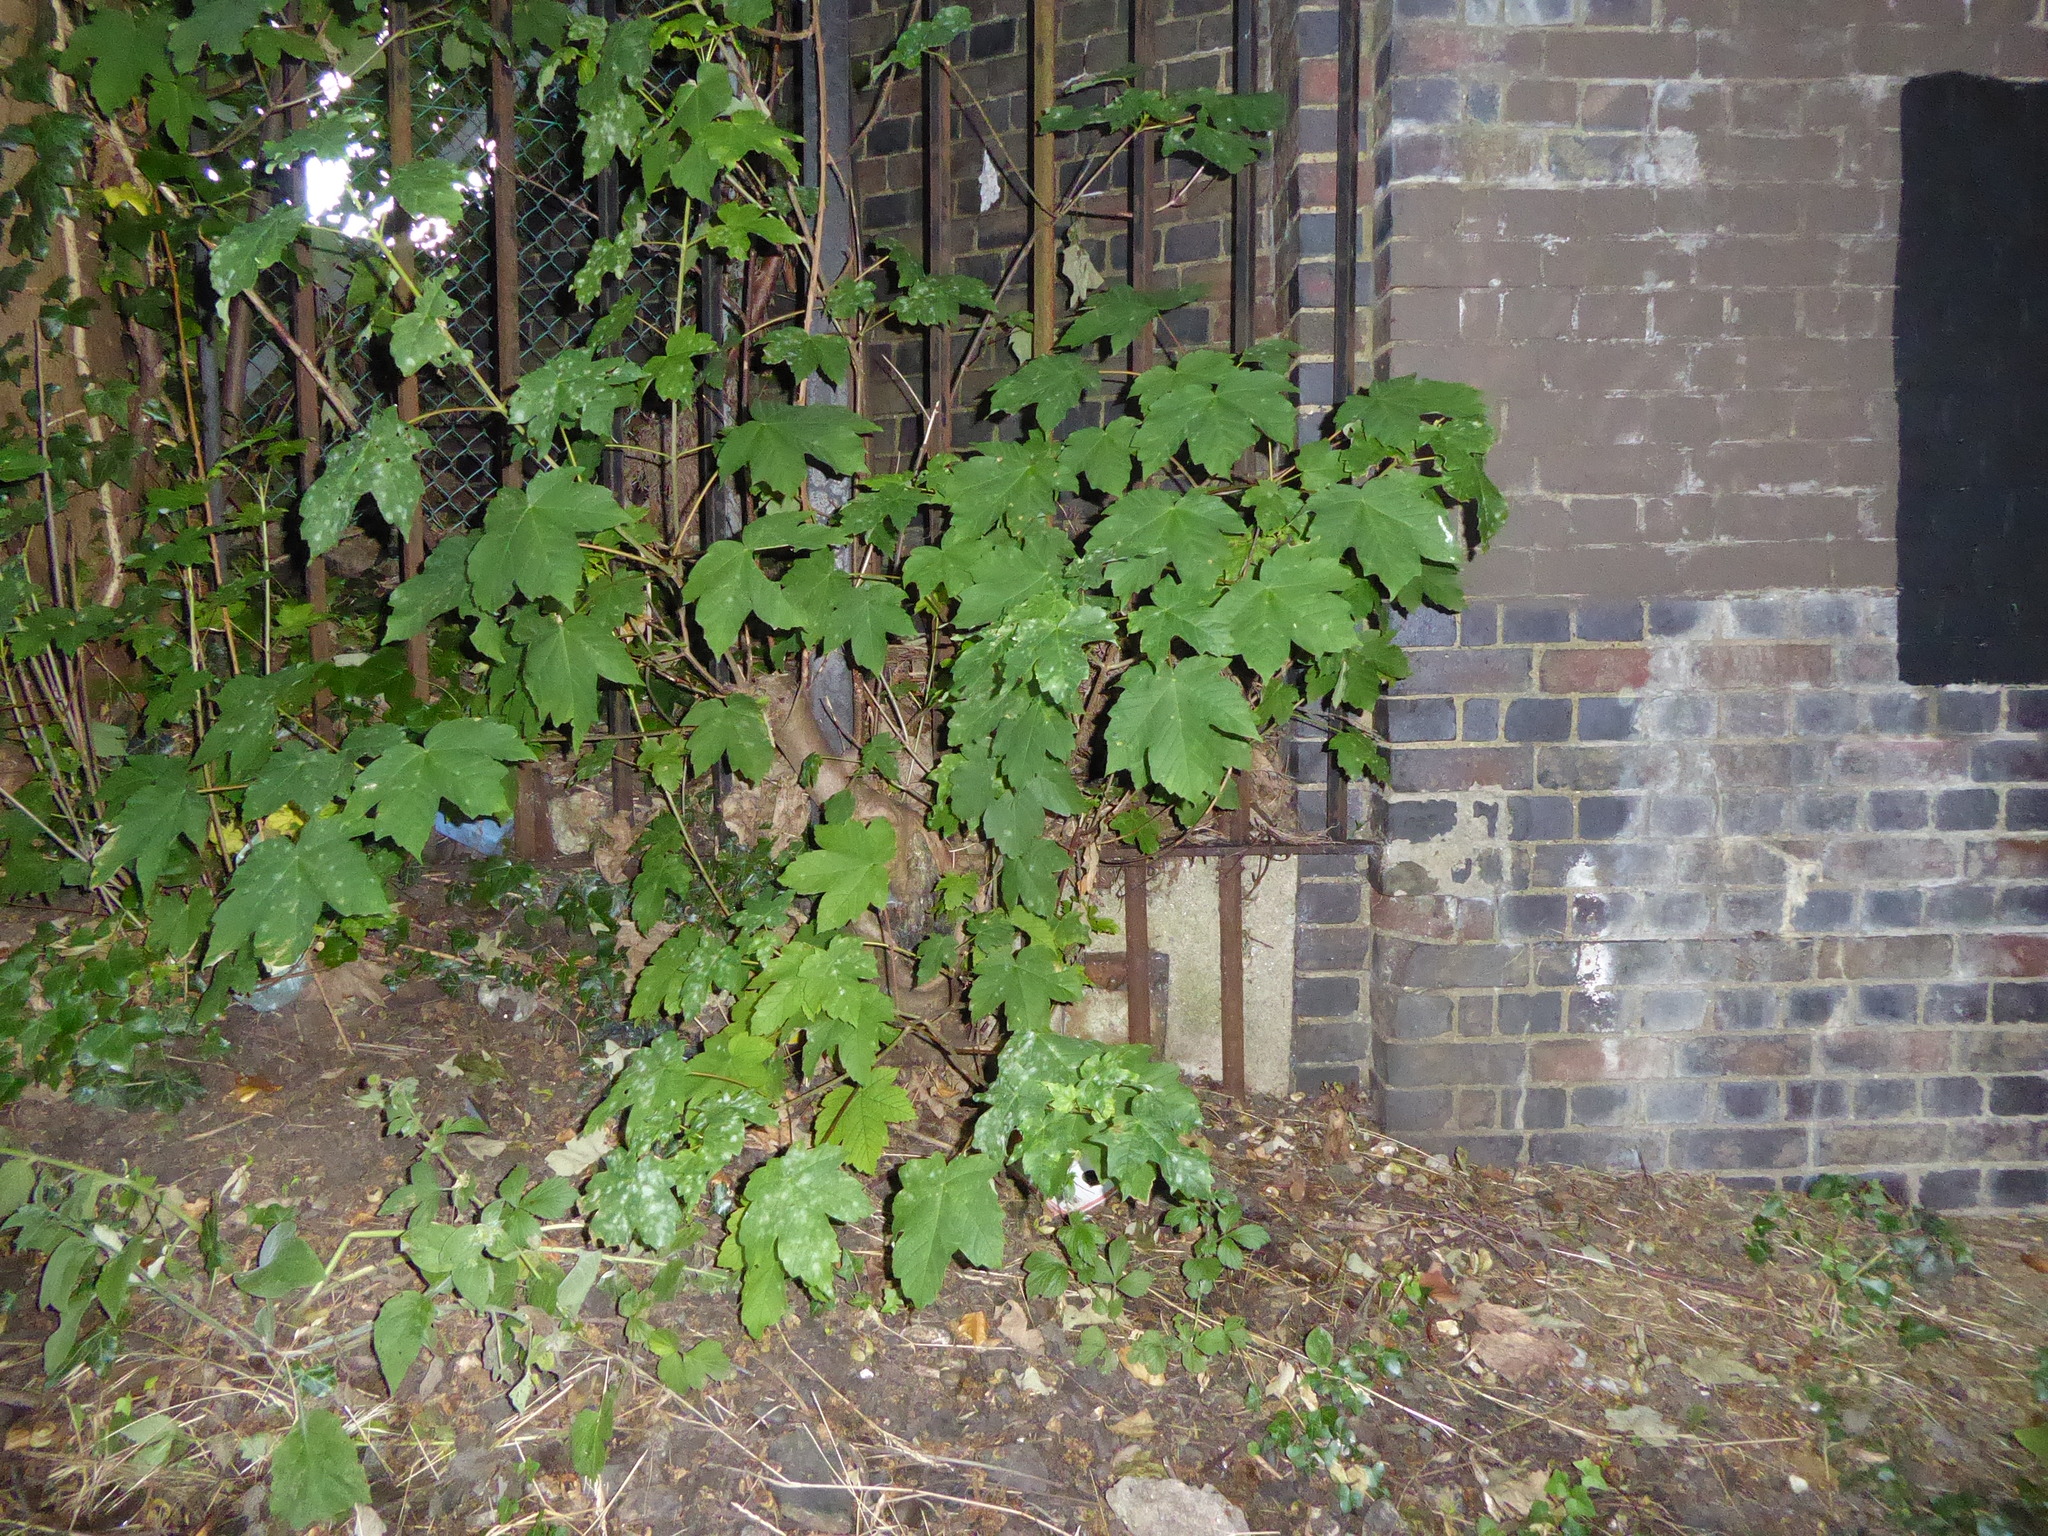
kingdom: Plantae
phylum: Tracheophyta
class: Magnoliopsida
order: Sapindales
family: Sapindaceae
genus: Acer
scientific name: Acer pseudoplatanus
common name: Sycamore
